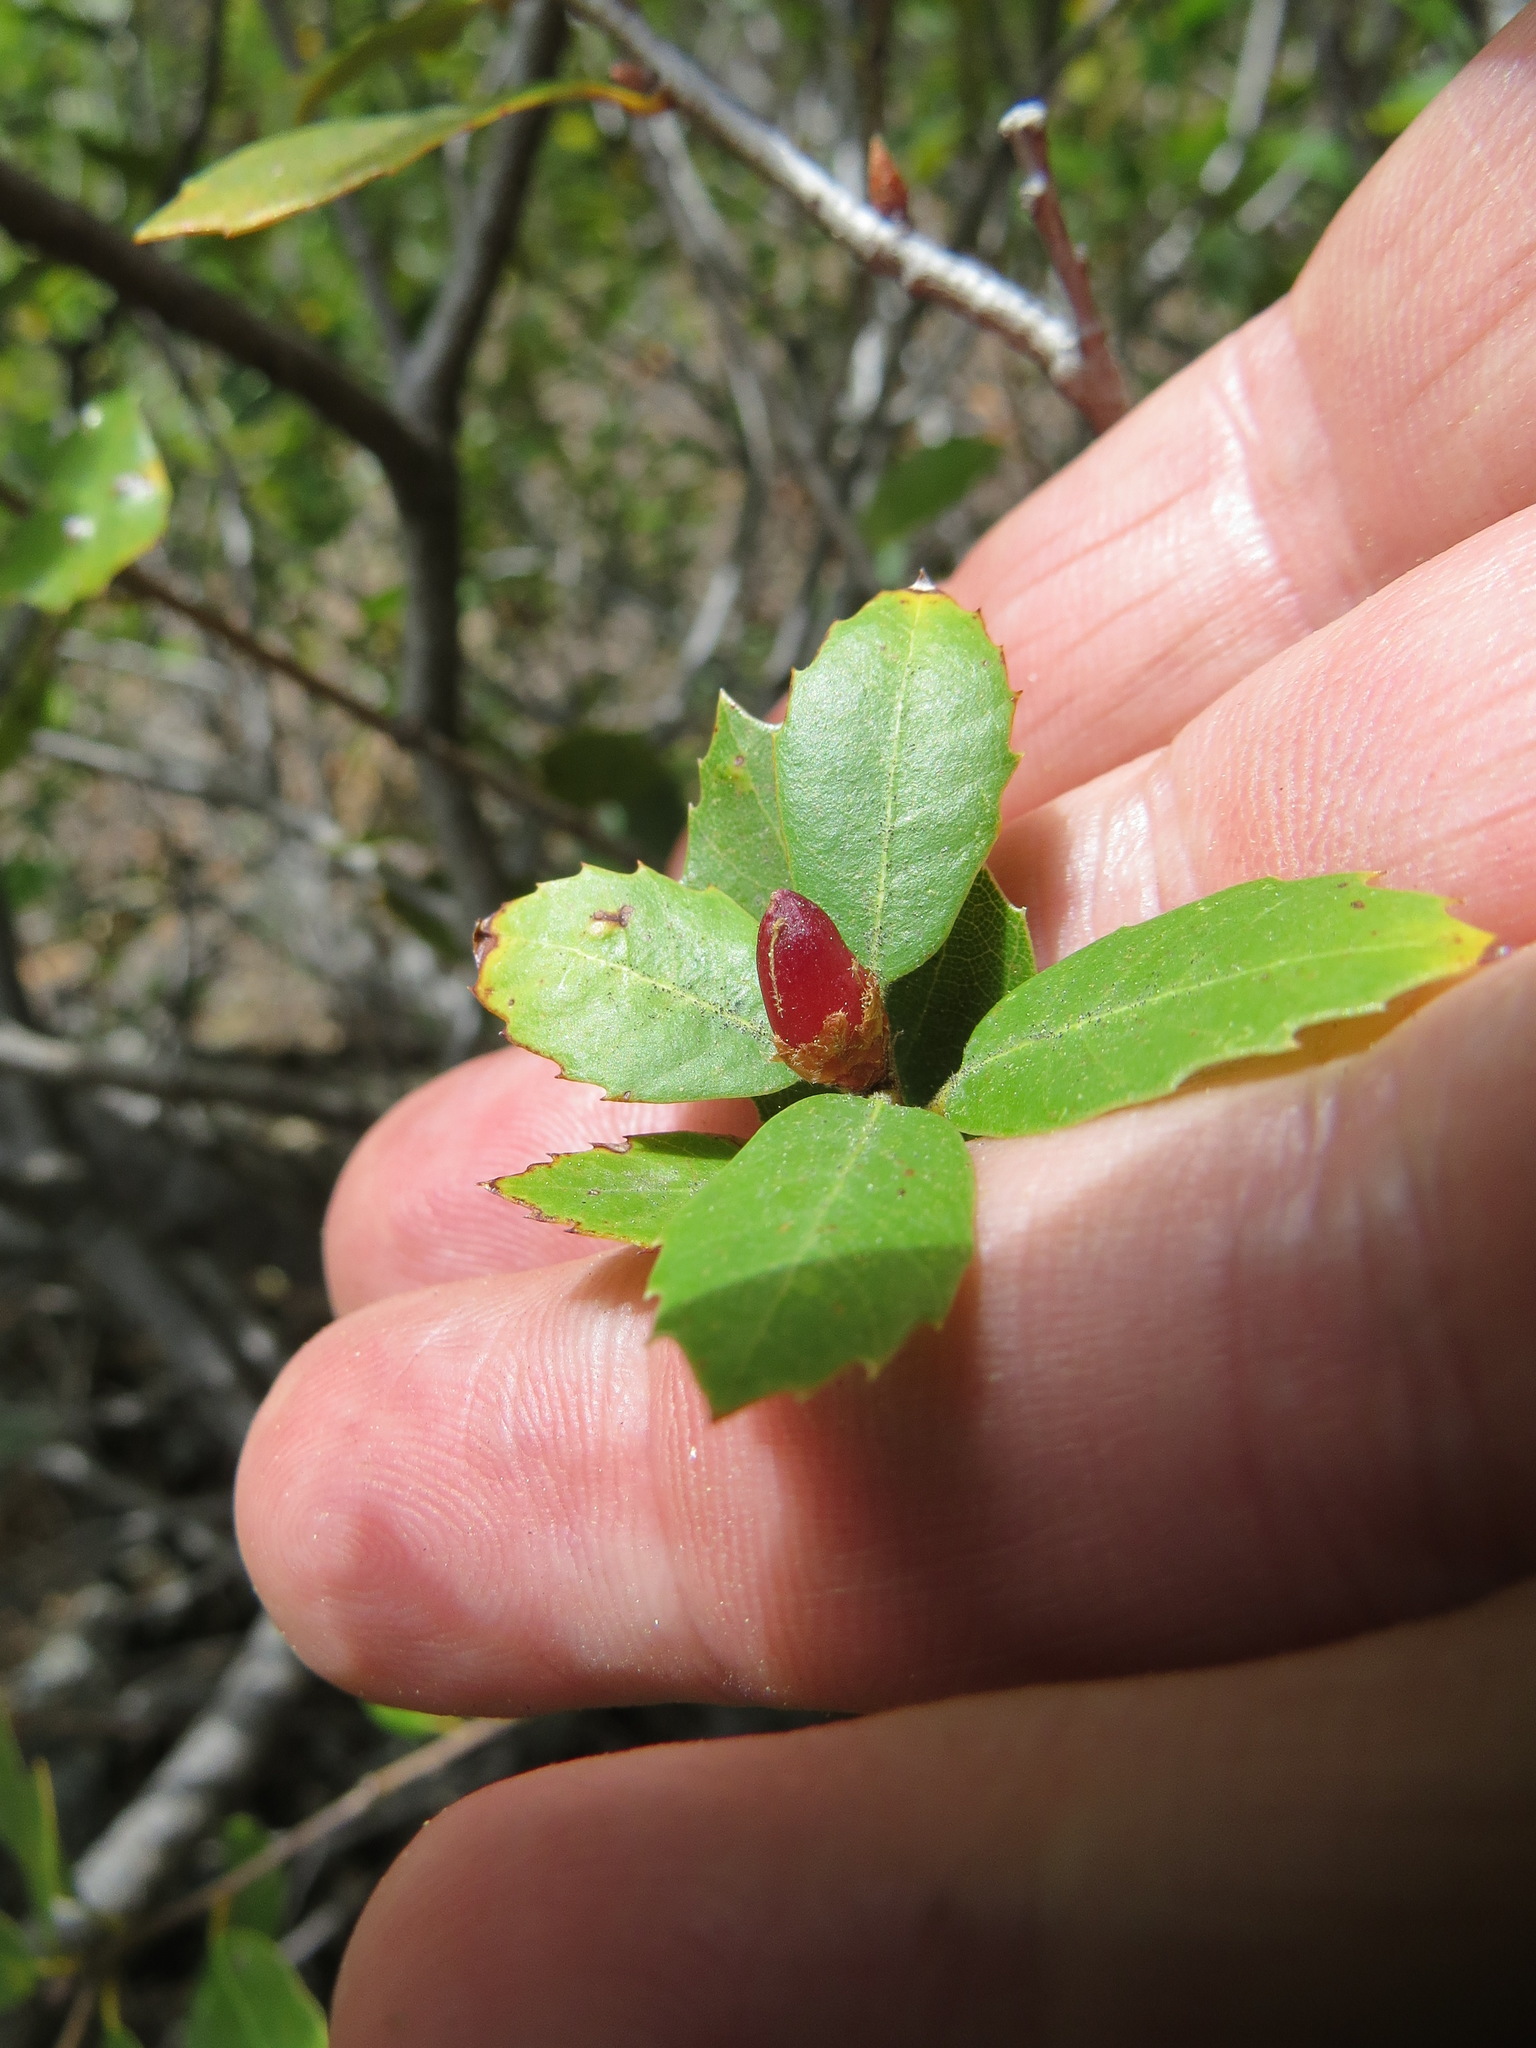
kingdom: Animalia
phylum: Arthropoda
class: Insecta
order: Hymenoptera
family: Cynipidae
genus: Andricus
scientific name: Andricus
